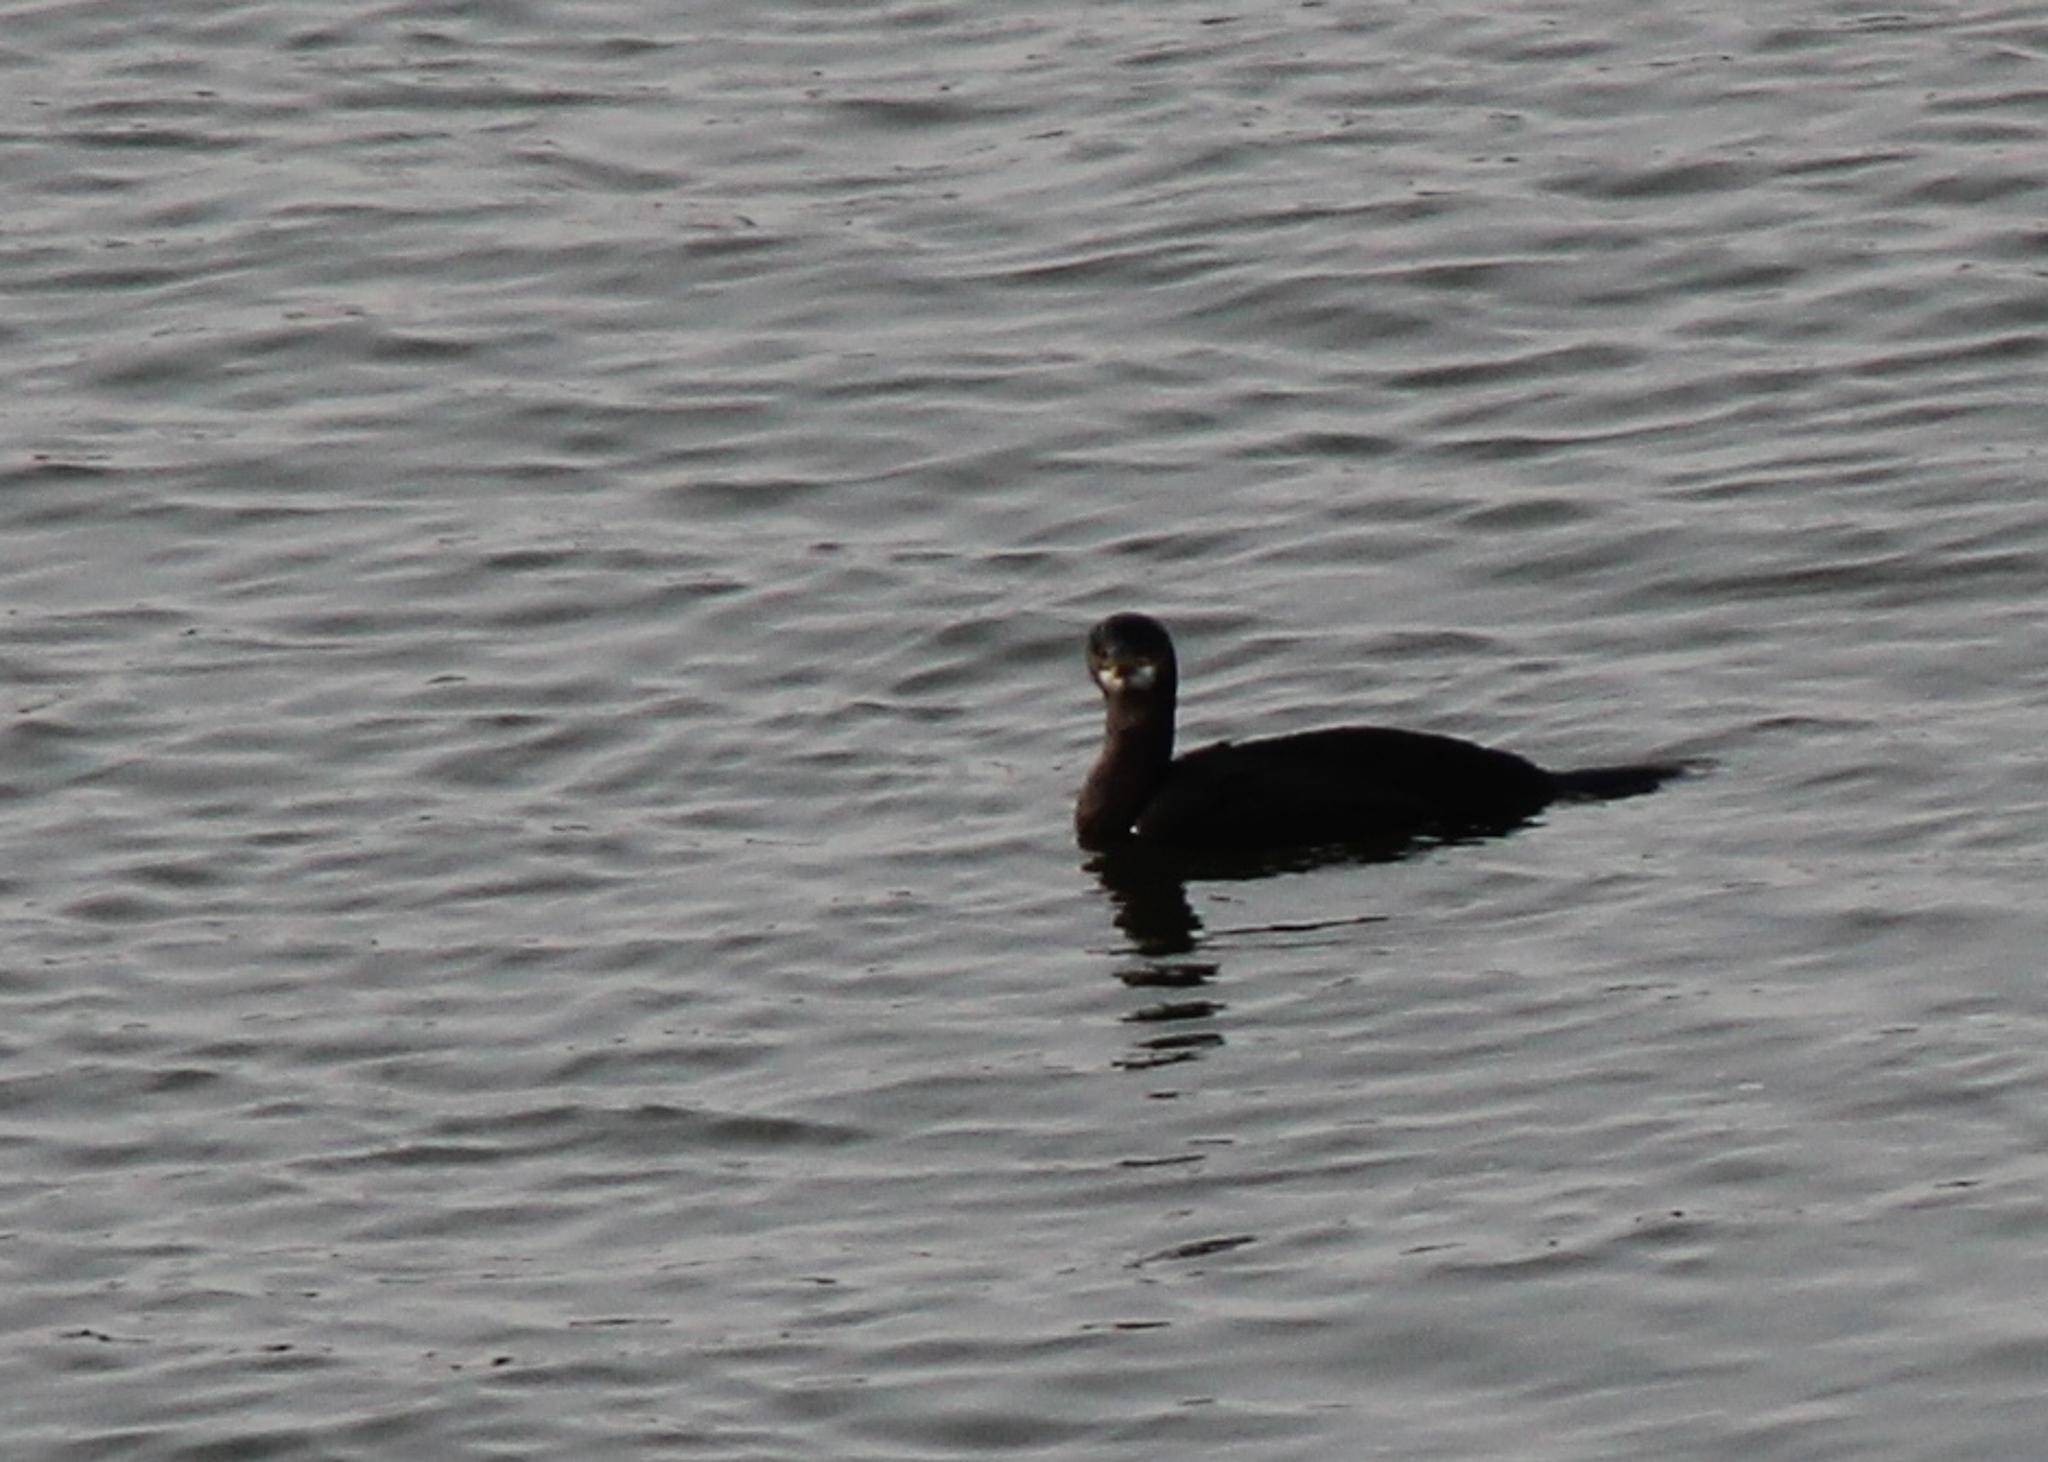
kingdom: Animalia
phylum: Chordata
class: Aves
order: Suliformes
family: Phalacrocoracidae
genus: Phalacrocorax
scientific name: Phalacrocorax aristotelis
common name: European shag
